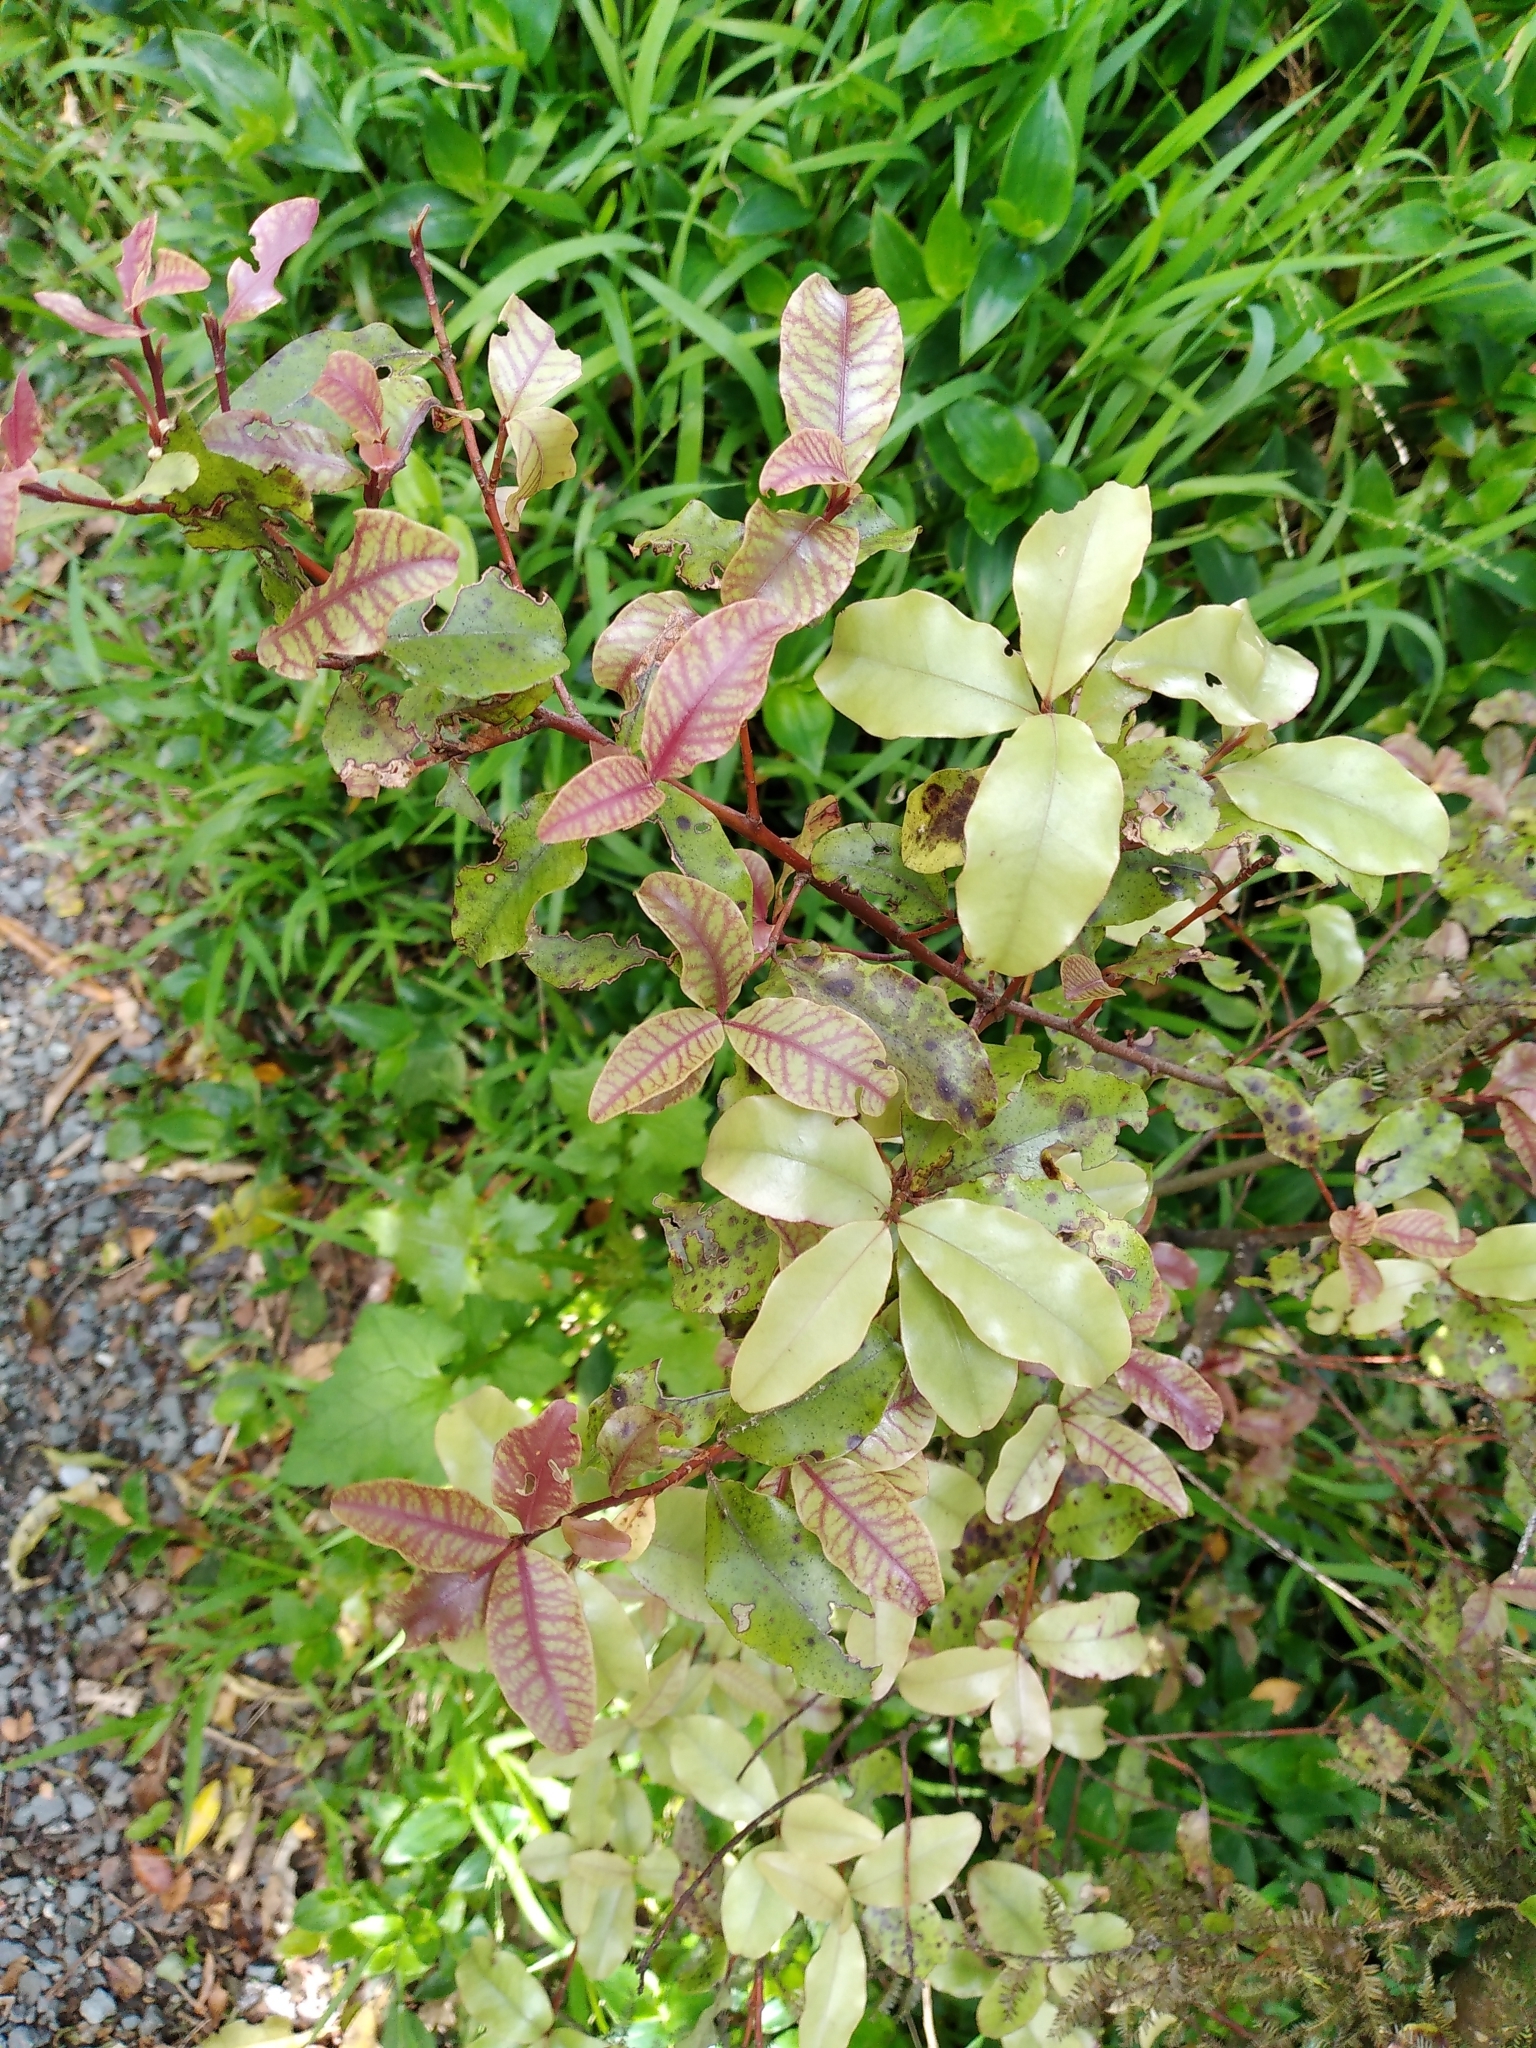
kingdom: Plantae
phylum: Tracheophyta
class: Magnoliopsida
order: Ericales
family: Primulaceae
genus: Myrsine
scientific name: Myrsine australis
